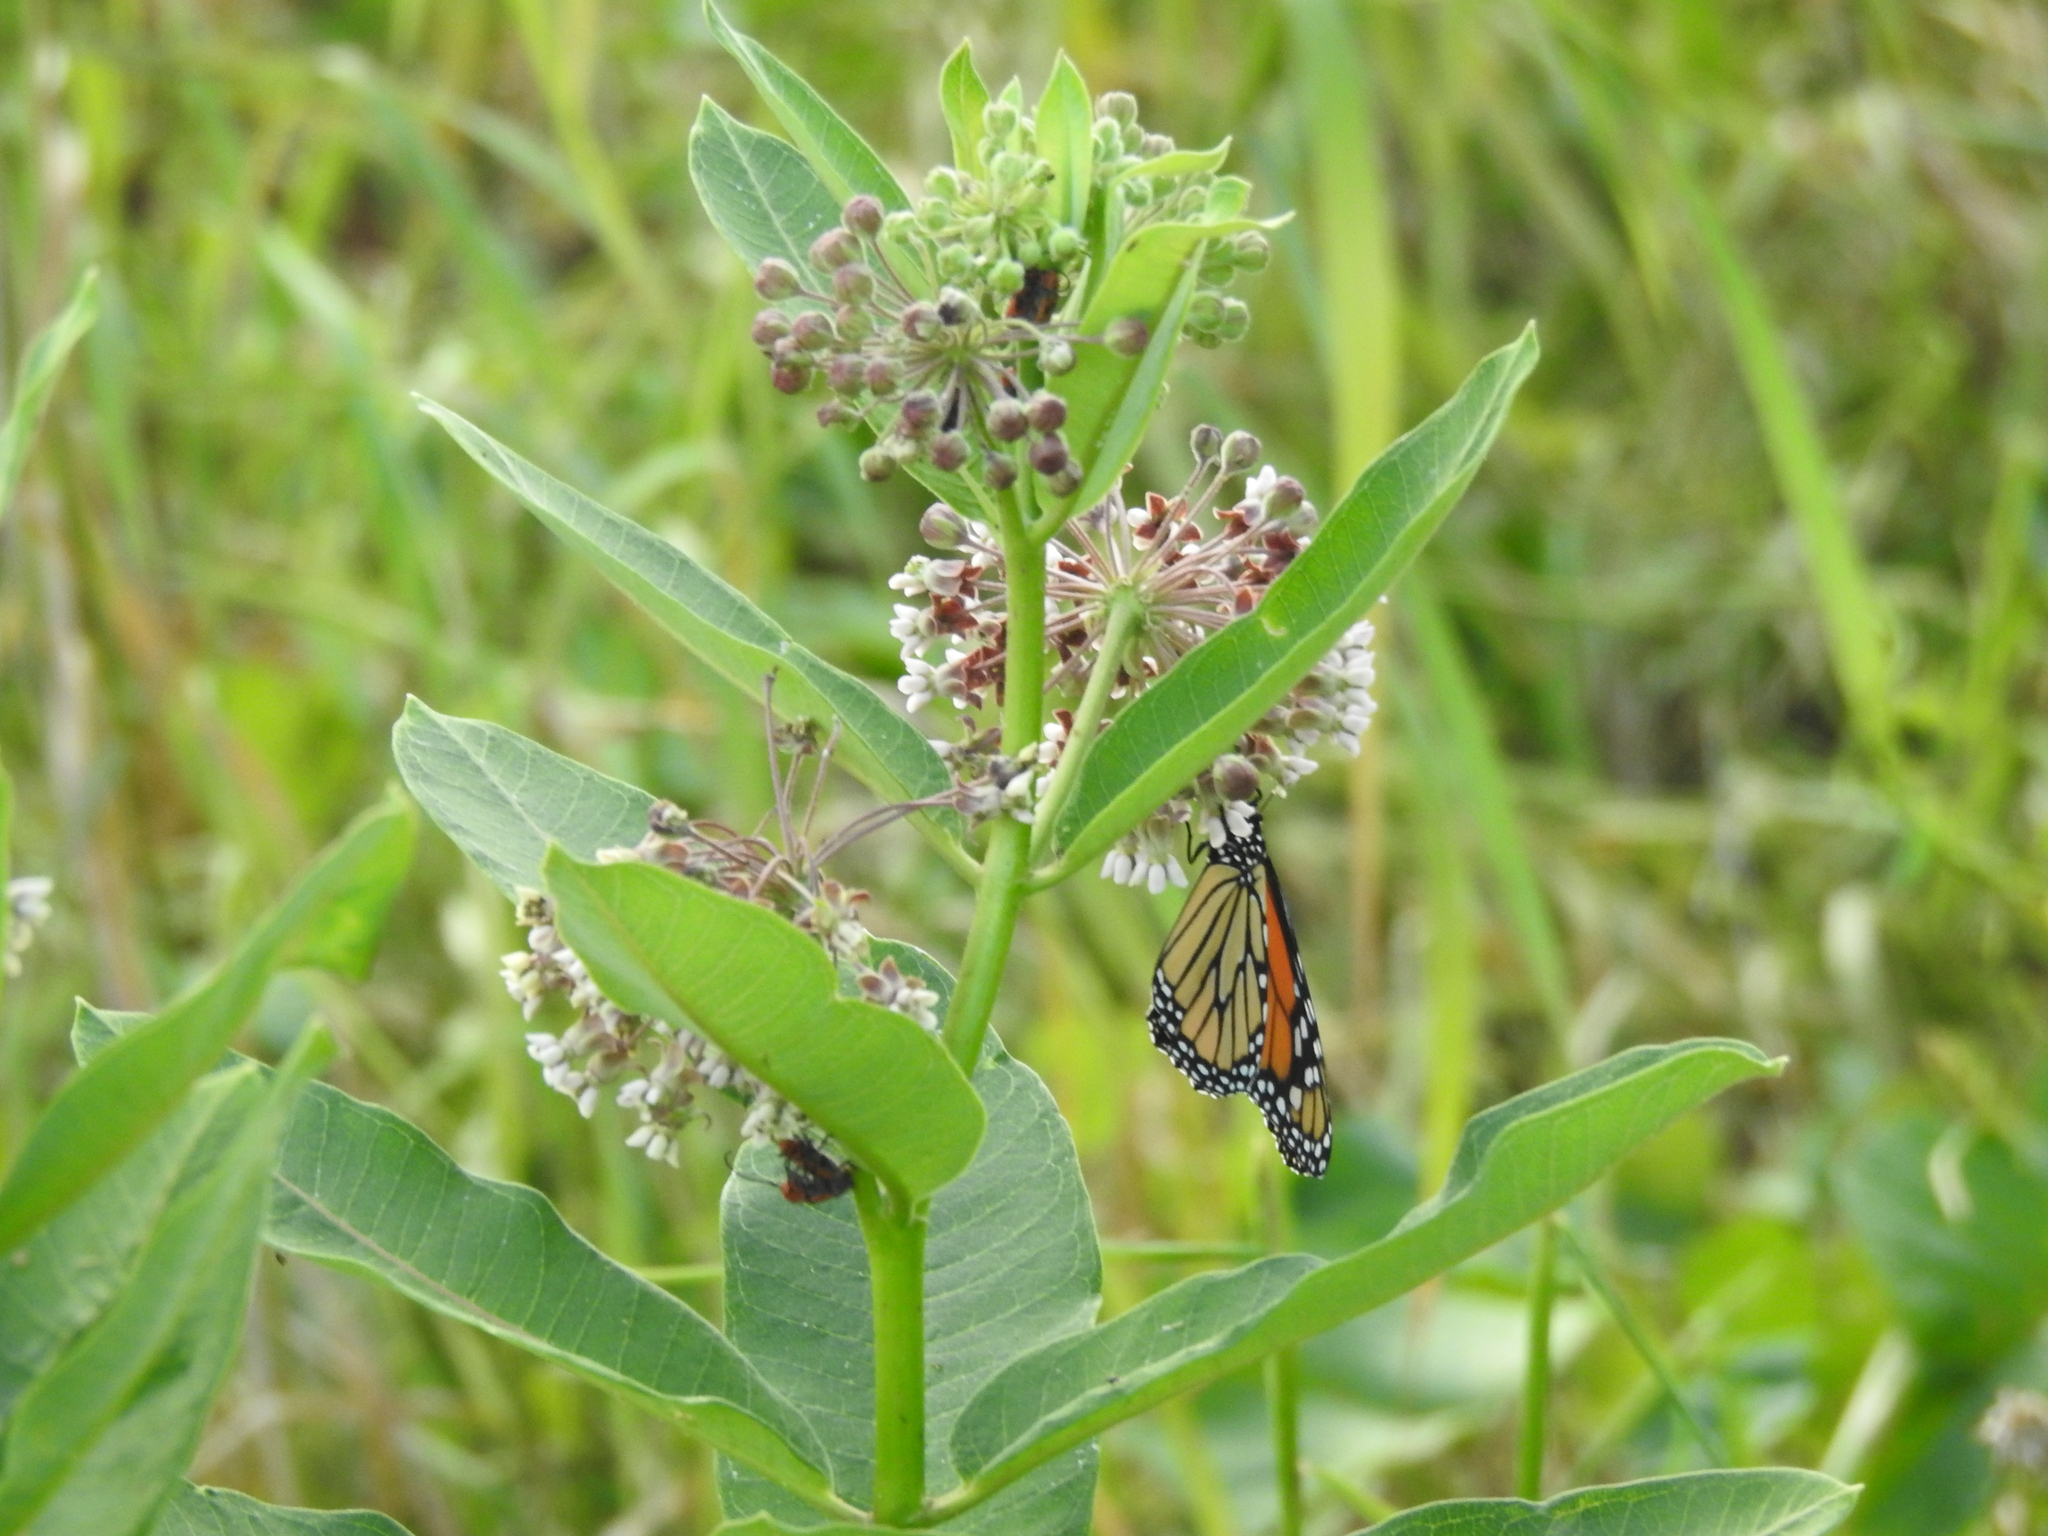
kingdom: Animalia
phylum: Arthropoda
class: Insecta
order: Lepidoptera
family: Nymphalidae
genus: Danaus
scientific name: Danaus plexippus
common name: Monarch
